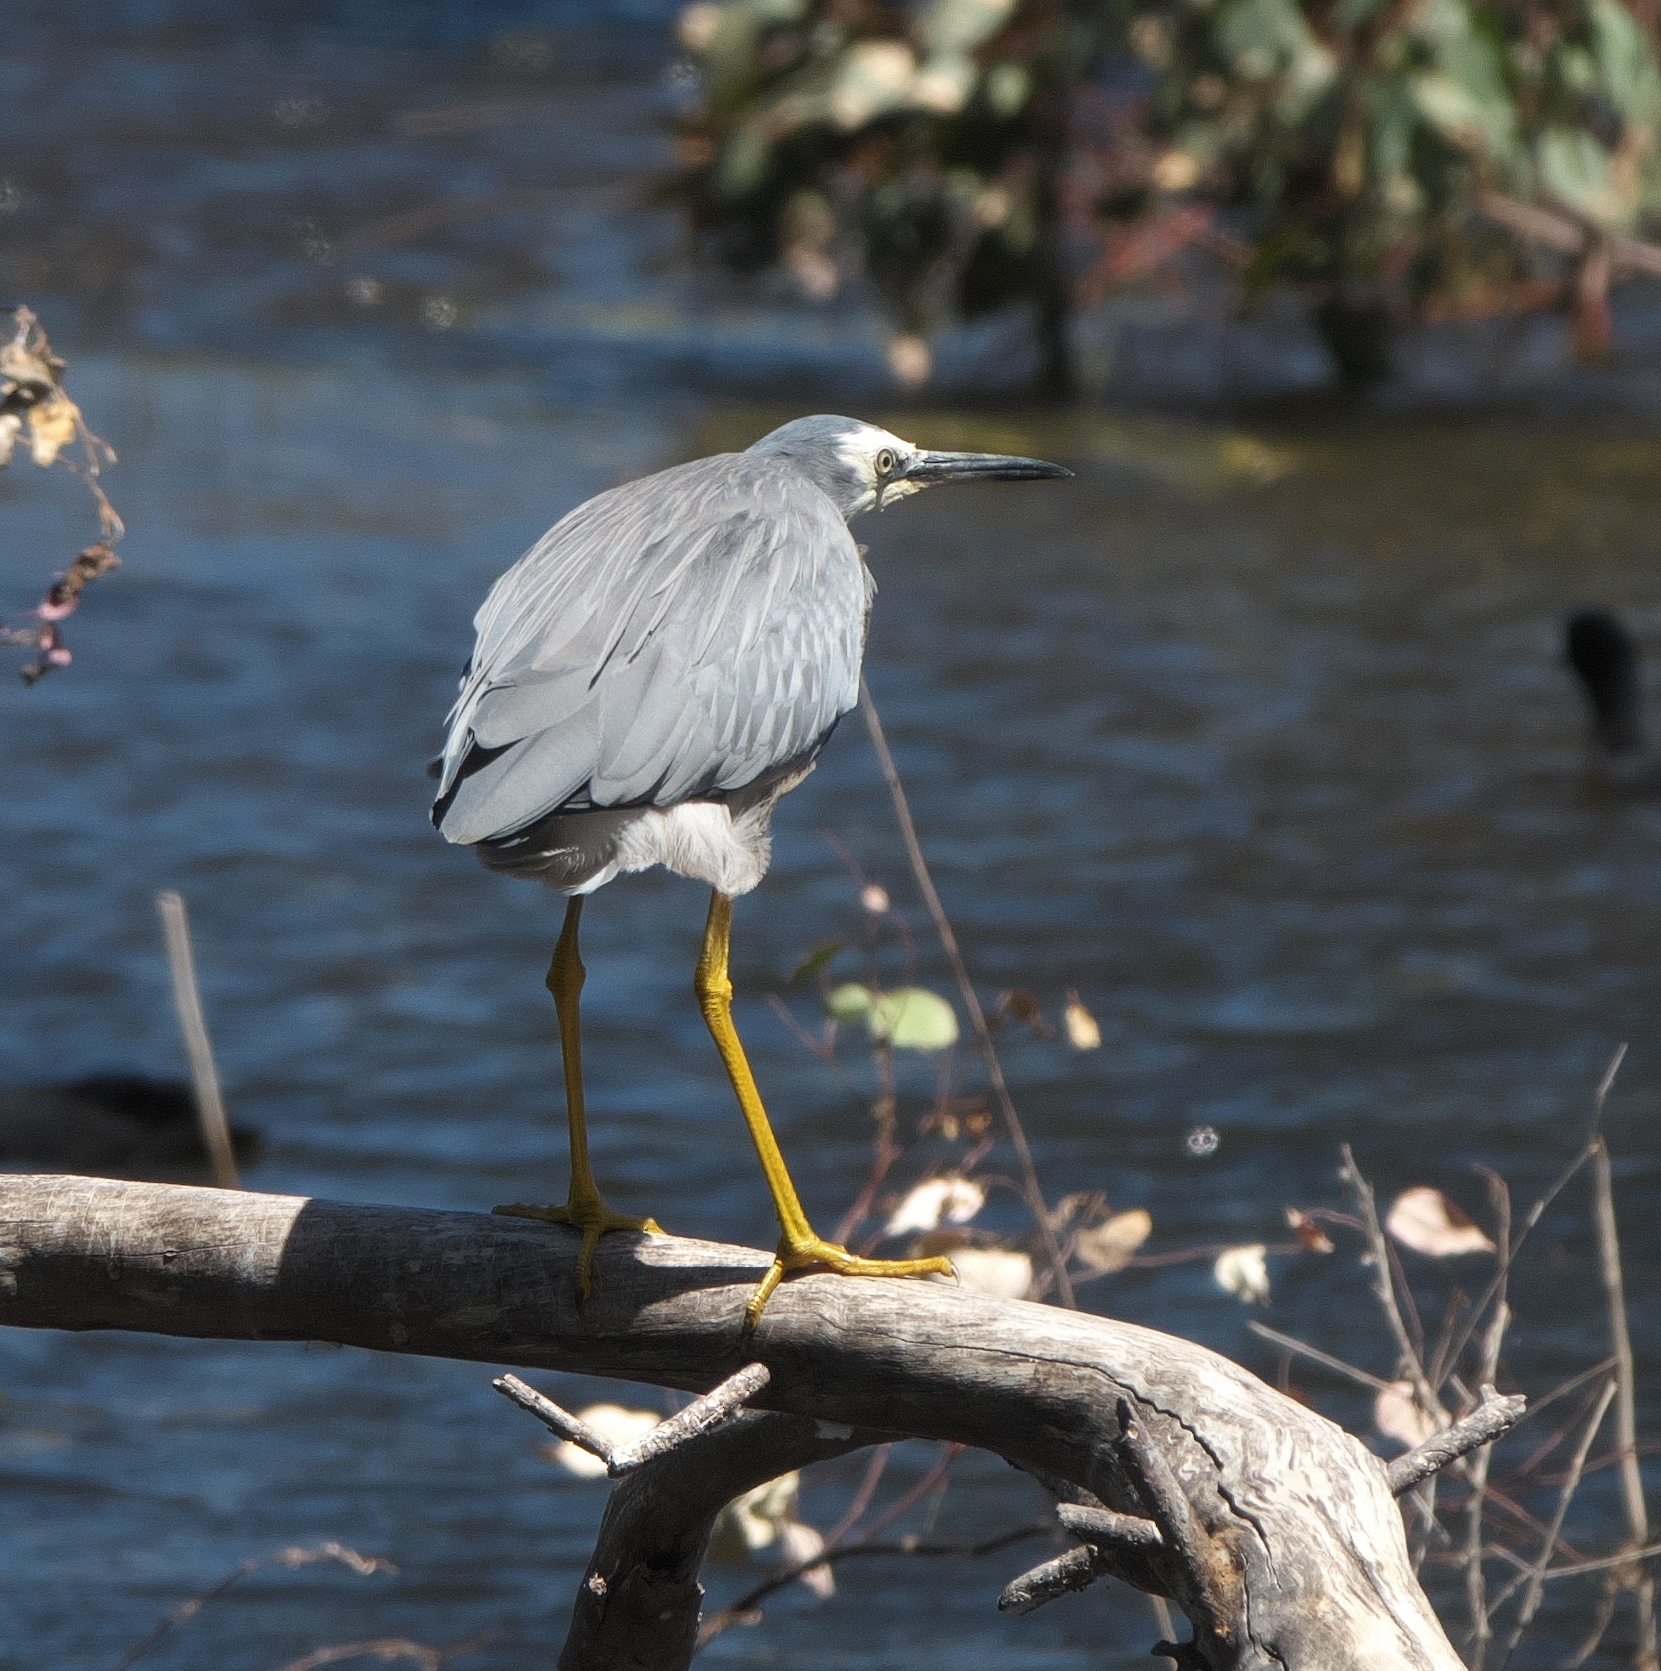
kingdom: Animalia
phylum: Chordata
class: Aves
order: Pelecaniformes
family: Ardeidae
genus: Egretta
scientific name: Egretta novaehollandiae
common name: White-faced heron
